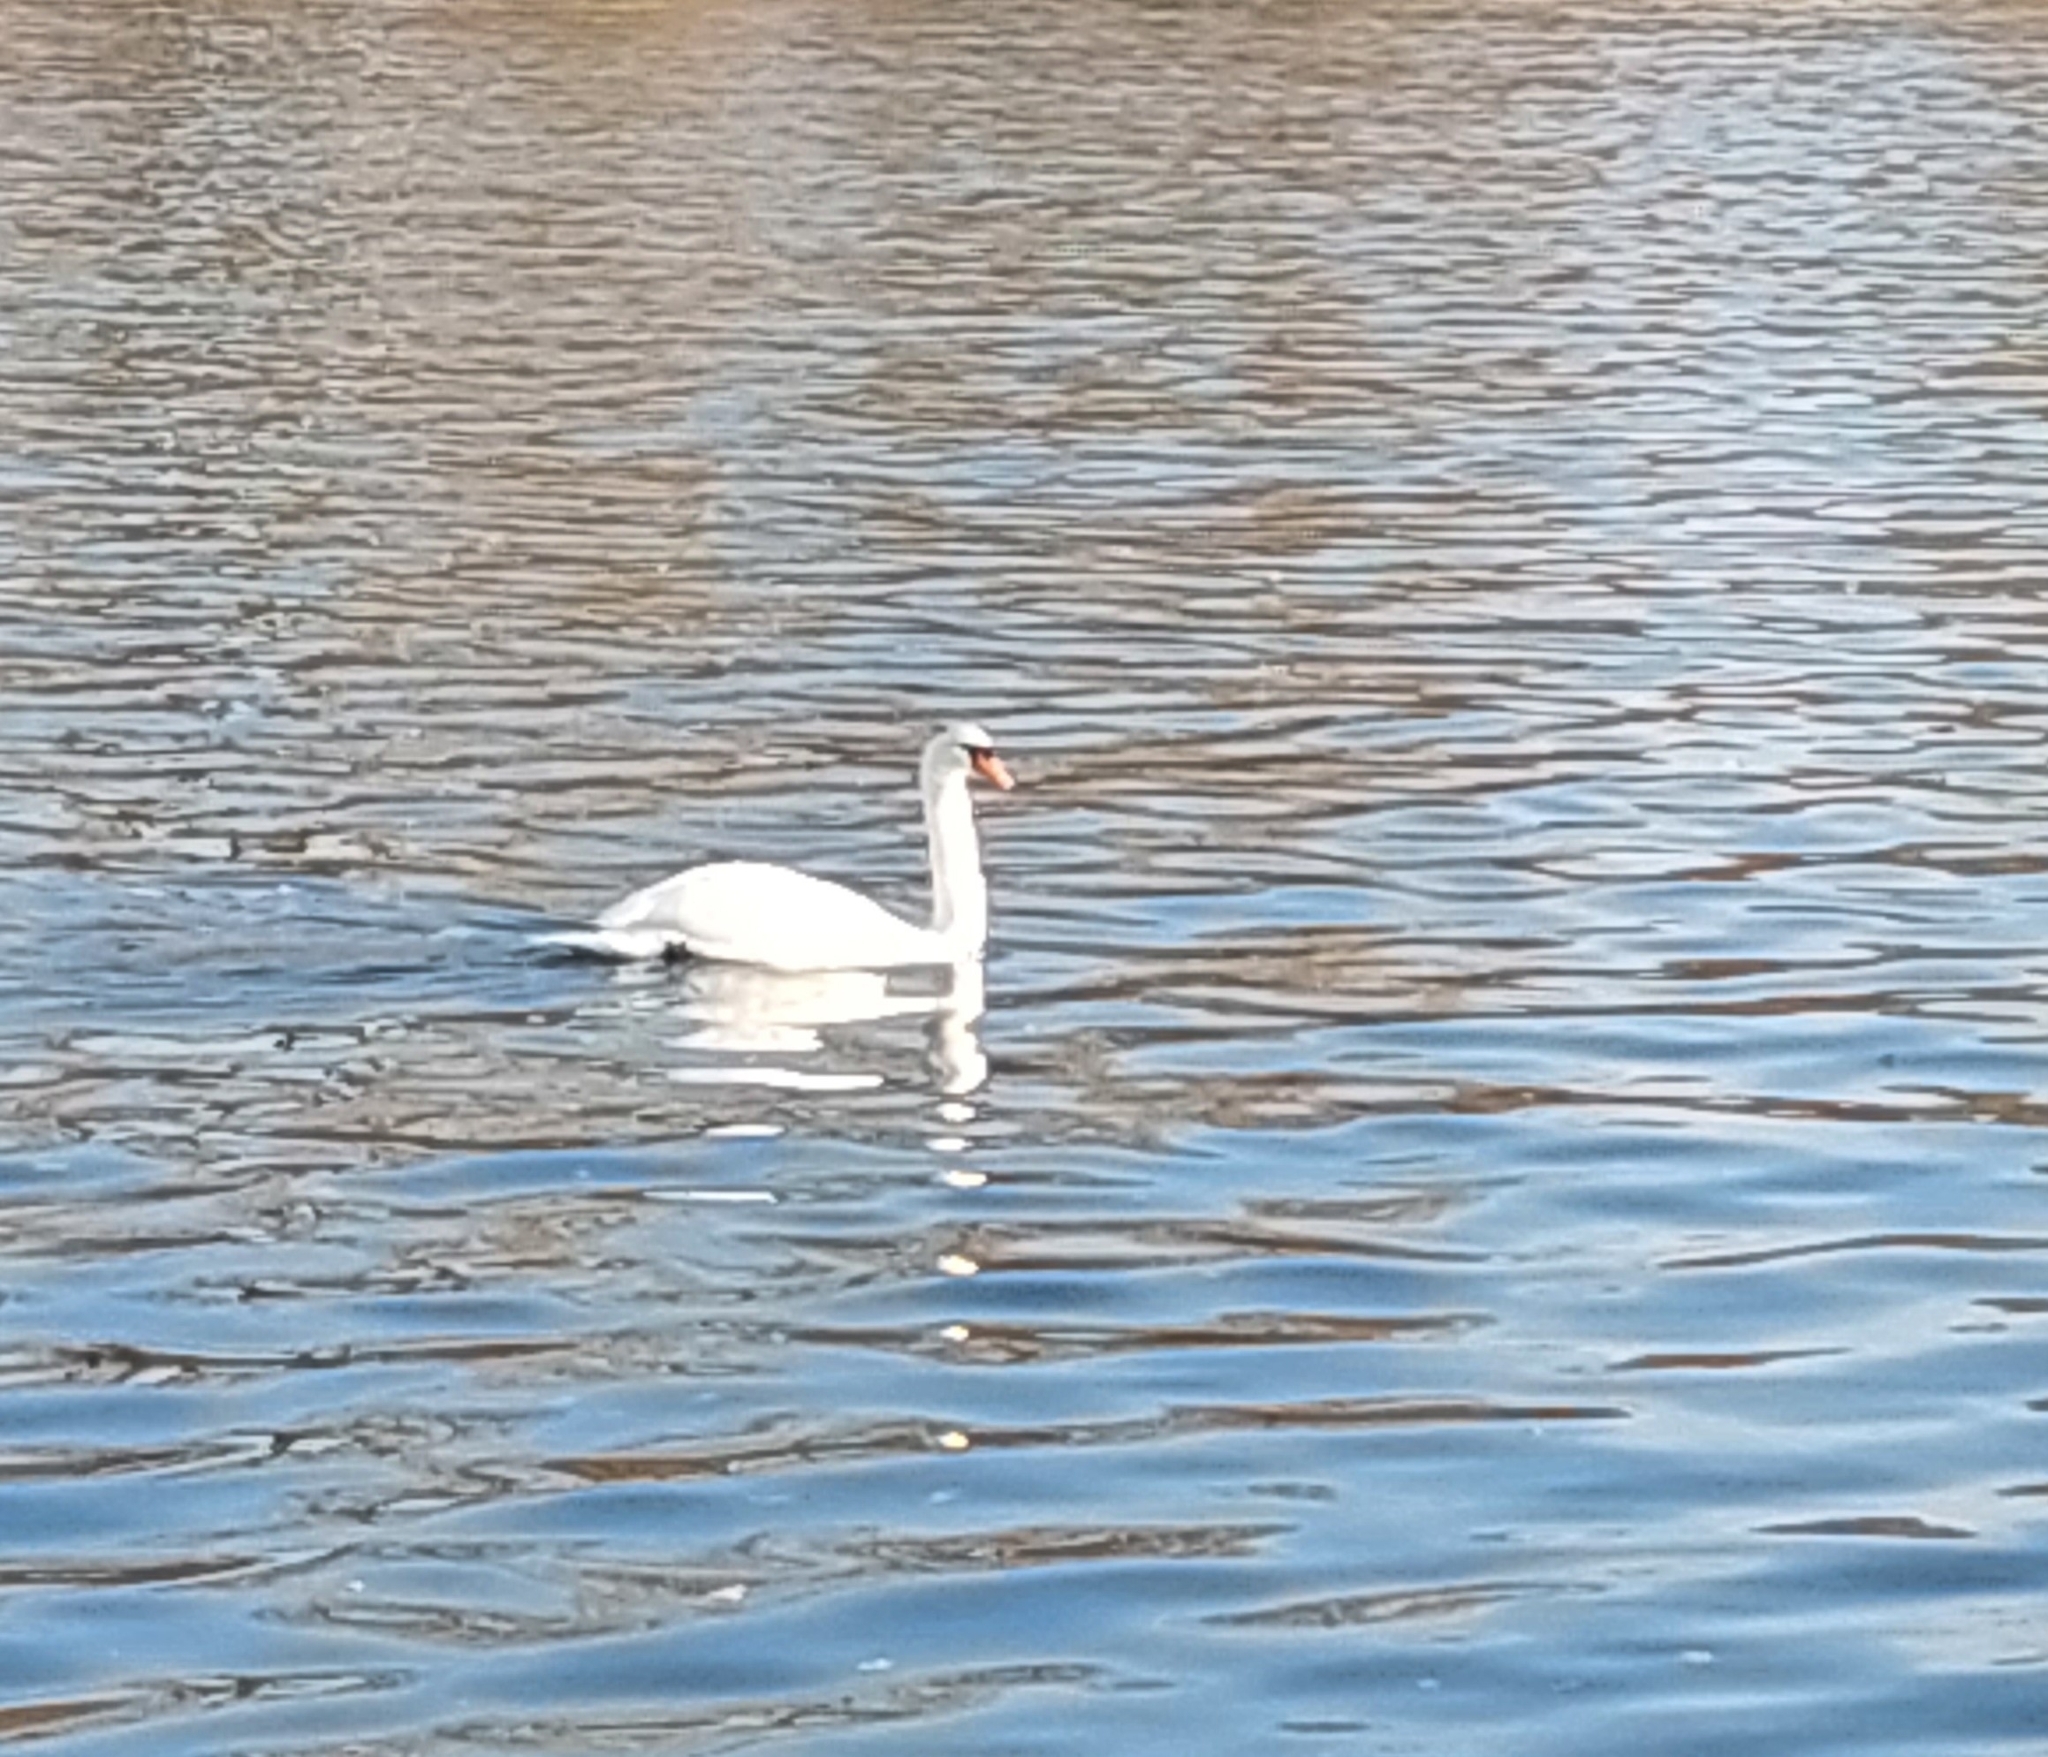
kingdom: Animalia
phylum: Chordata
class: Aves
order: Anseriformes
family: Anatidae
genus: Cygnus
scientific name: Cygnus olor
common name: Mute swan
